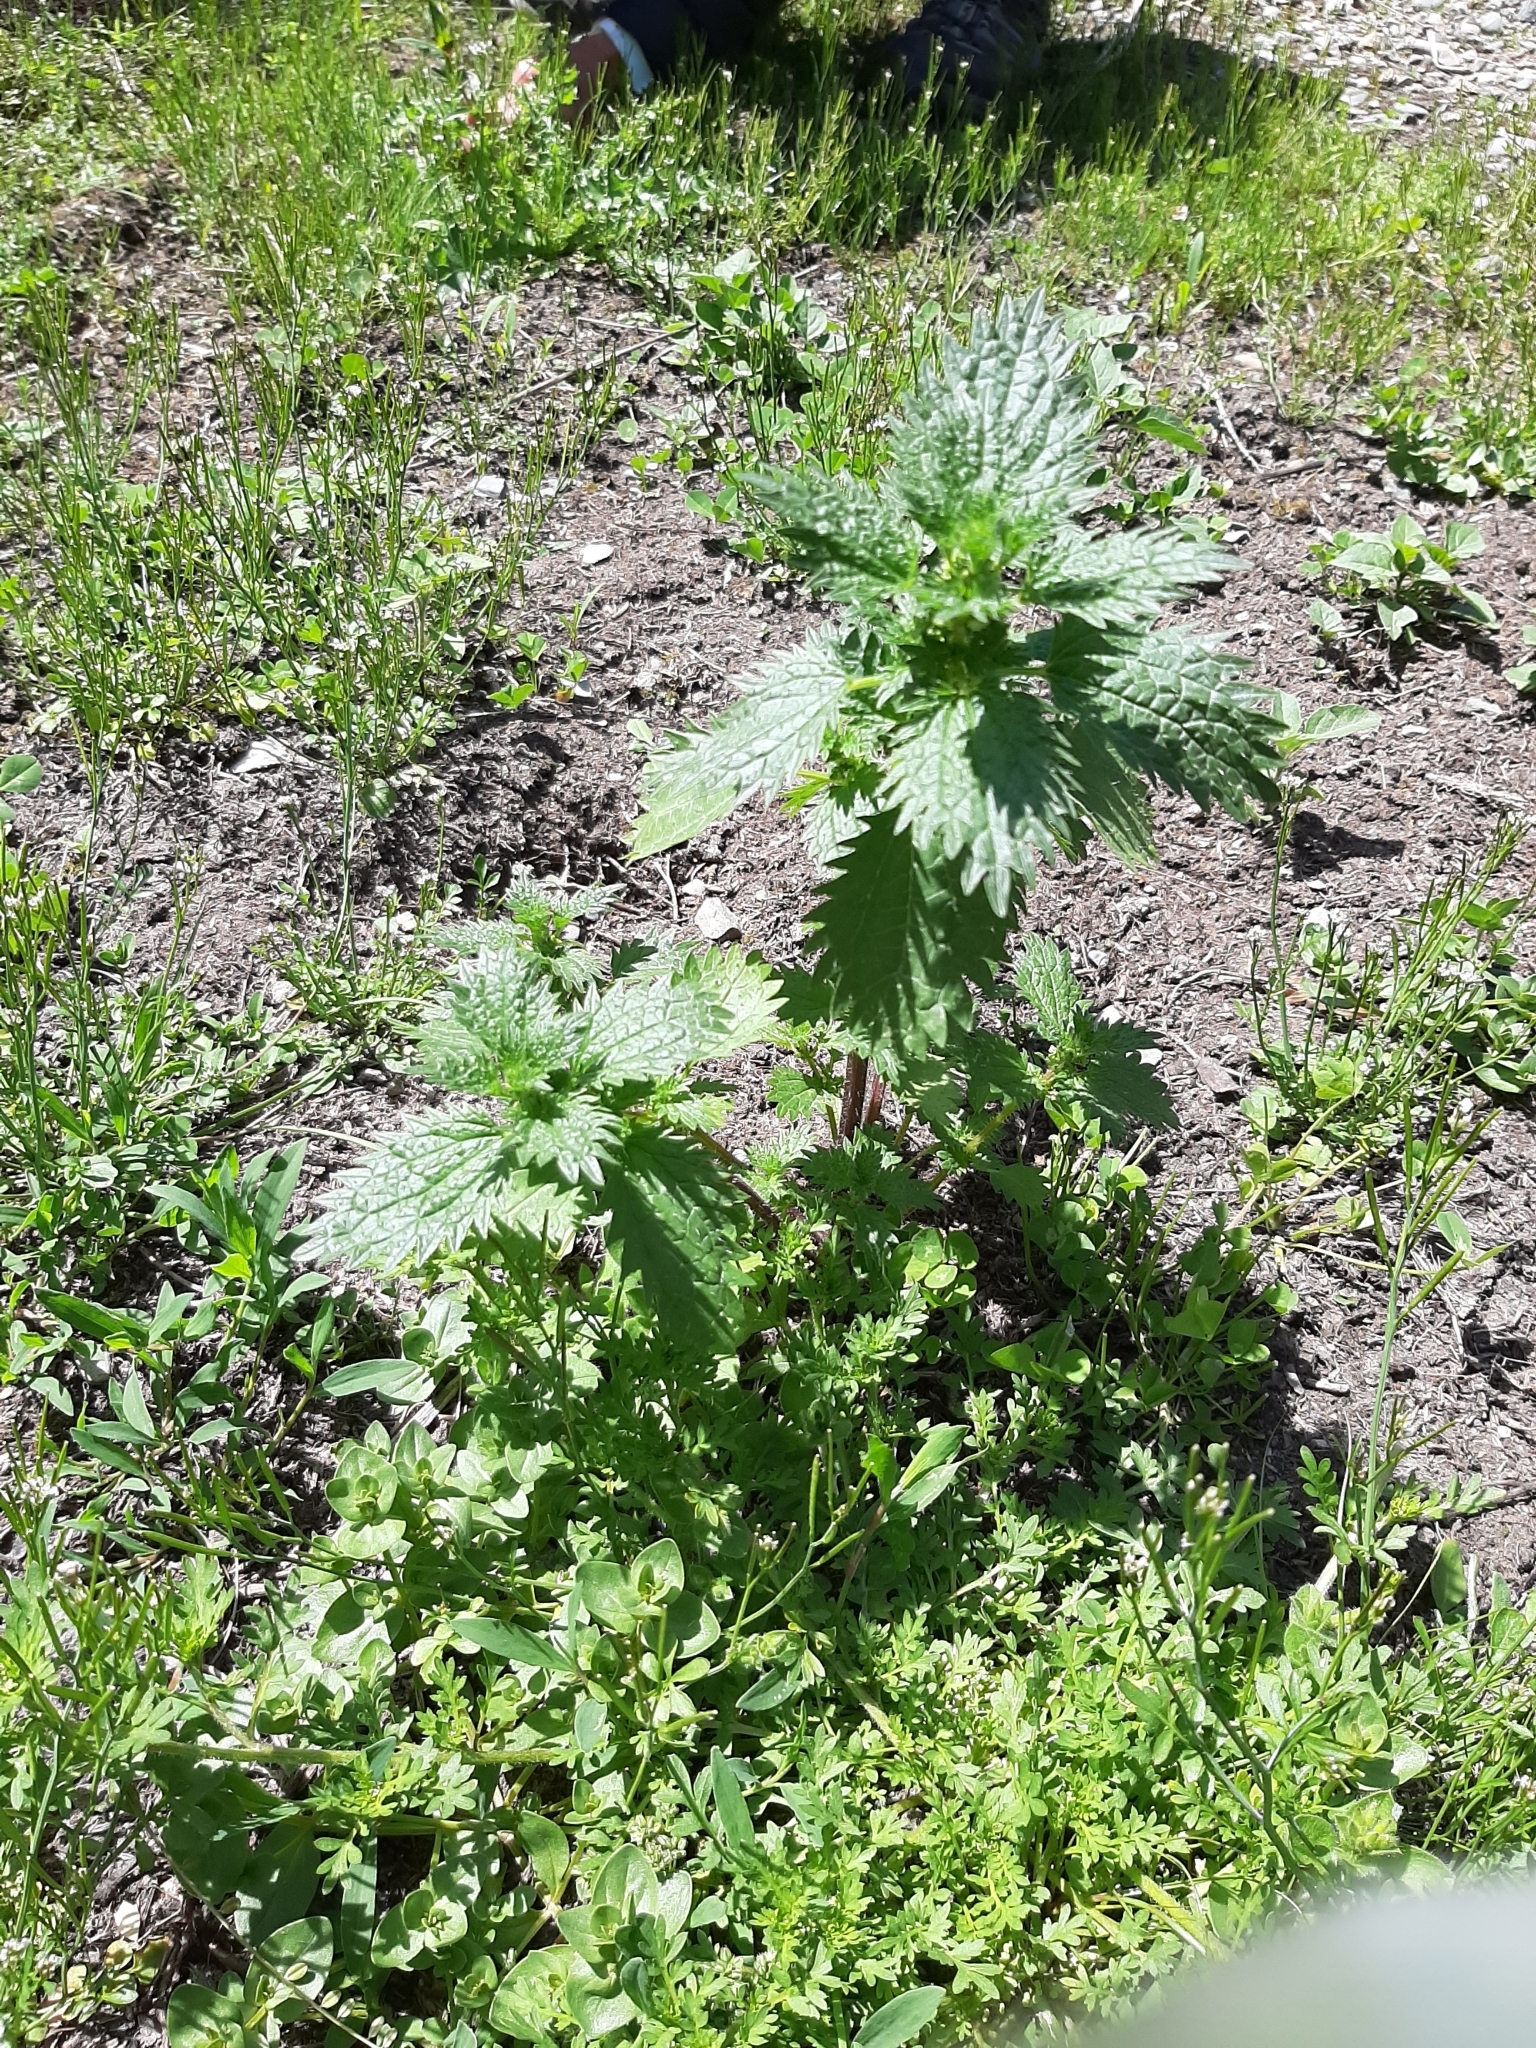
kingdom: Plantae
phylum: Tracheophyta
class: Magnoliopsida
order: Rosales
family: Urticaceae
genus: Urtica
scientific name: Urtica urens
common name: Dwarf nettle
